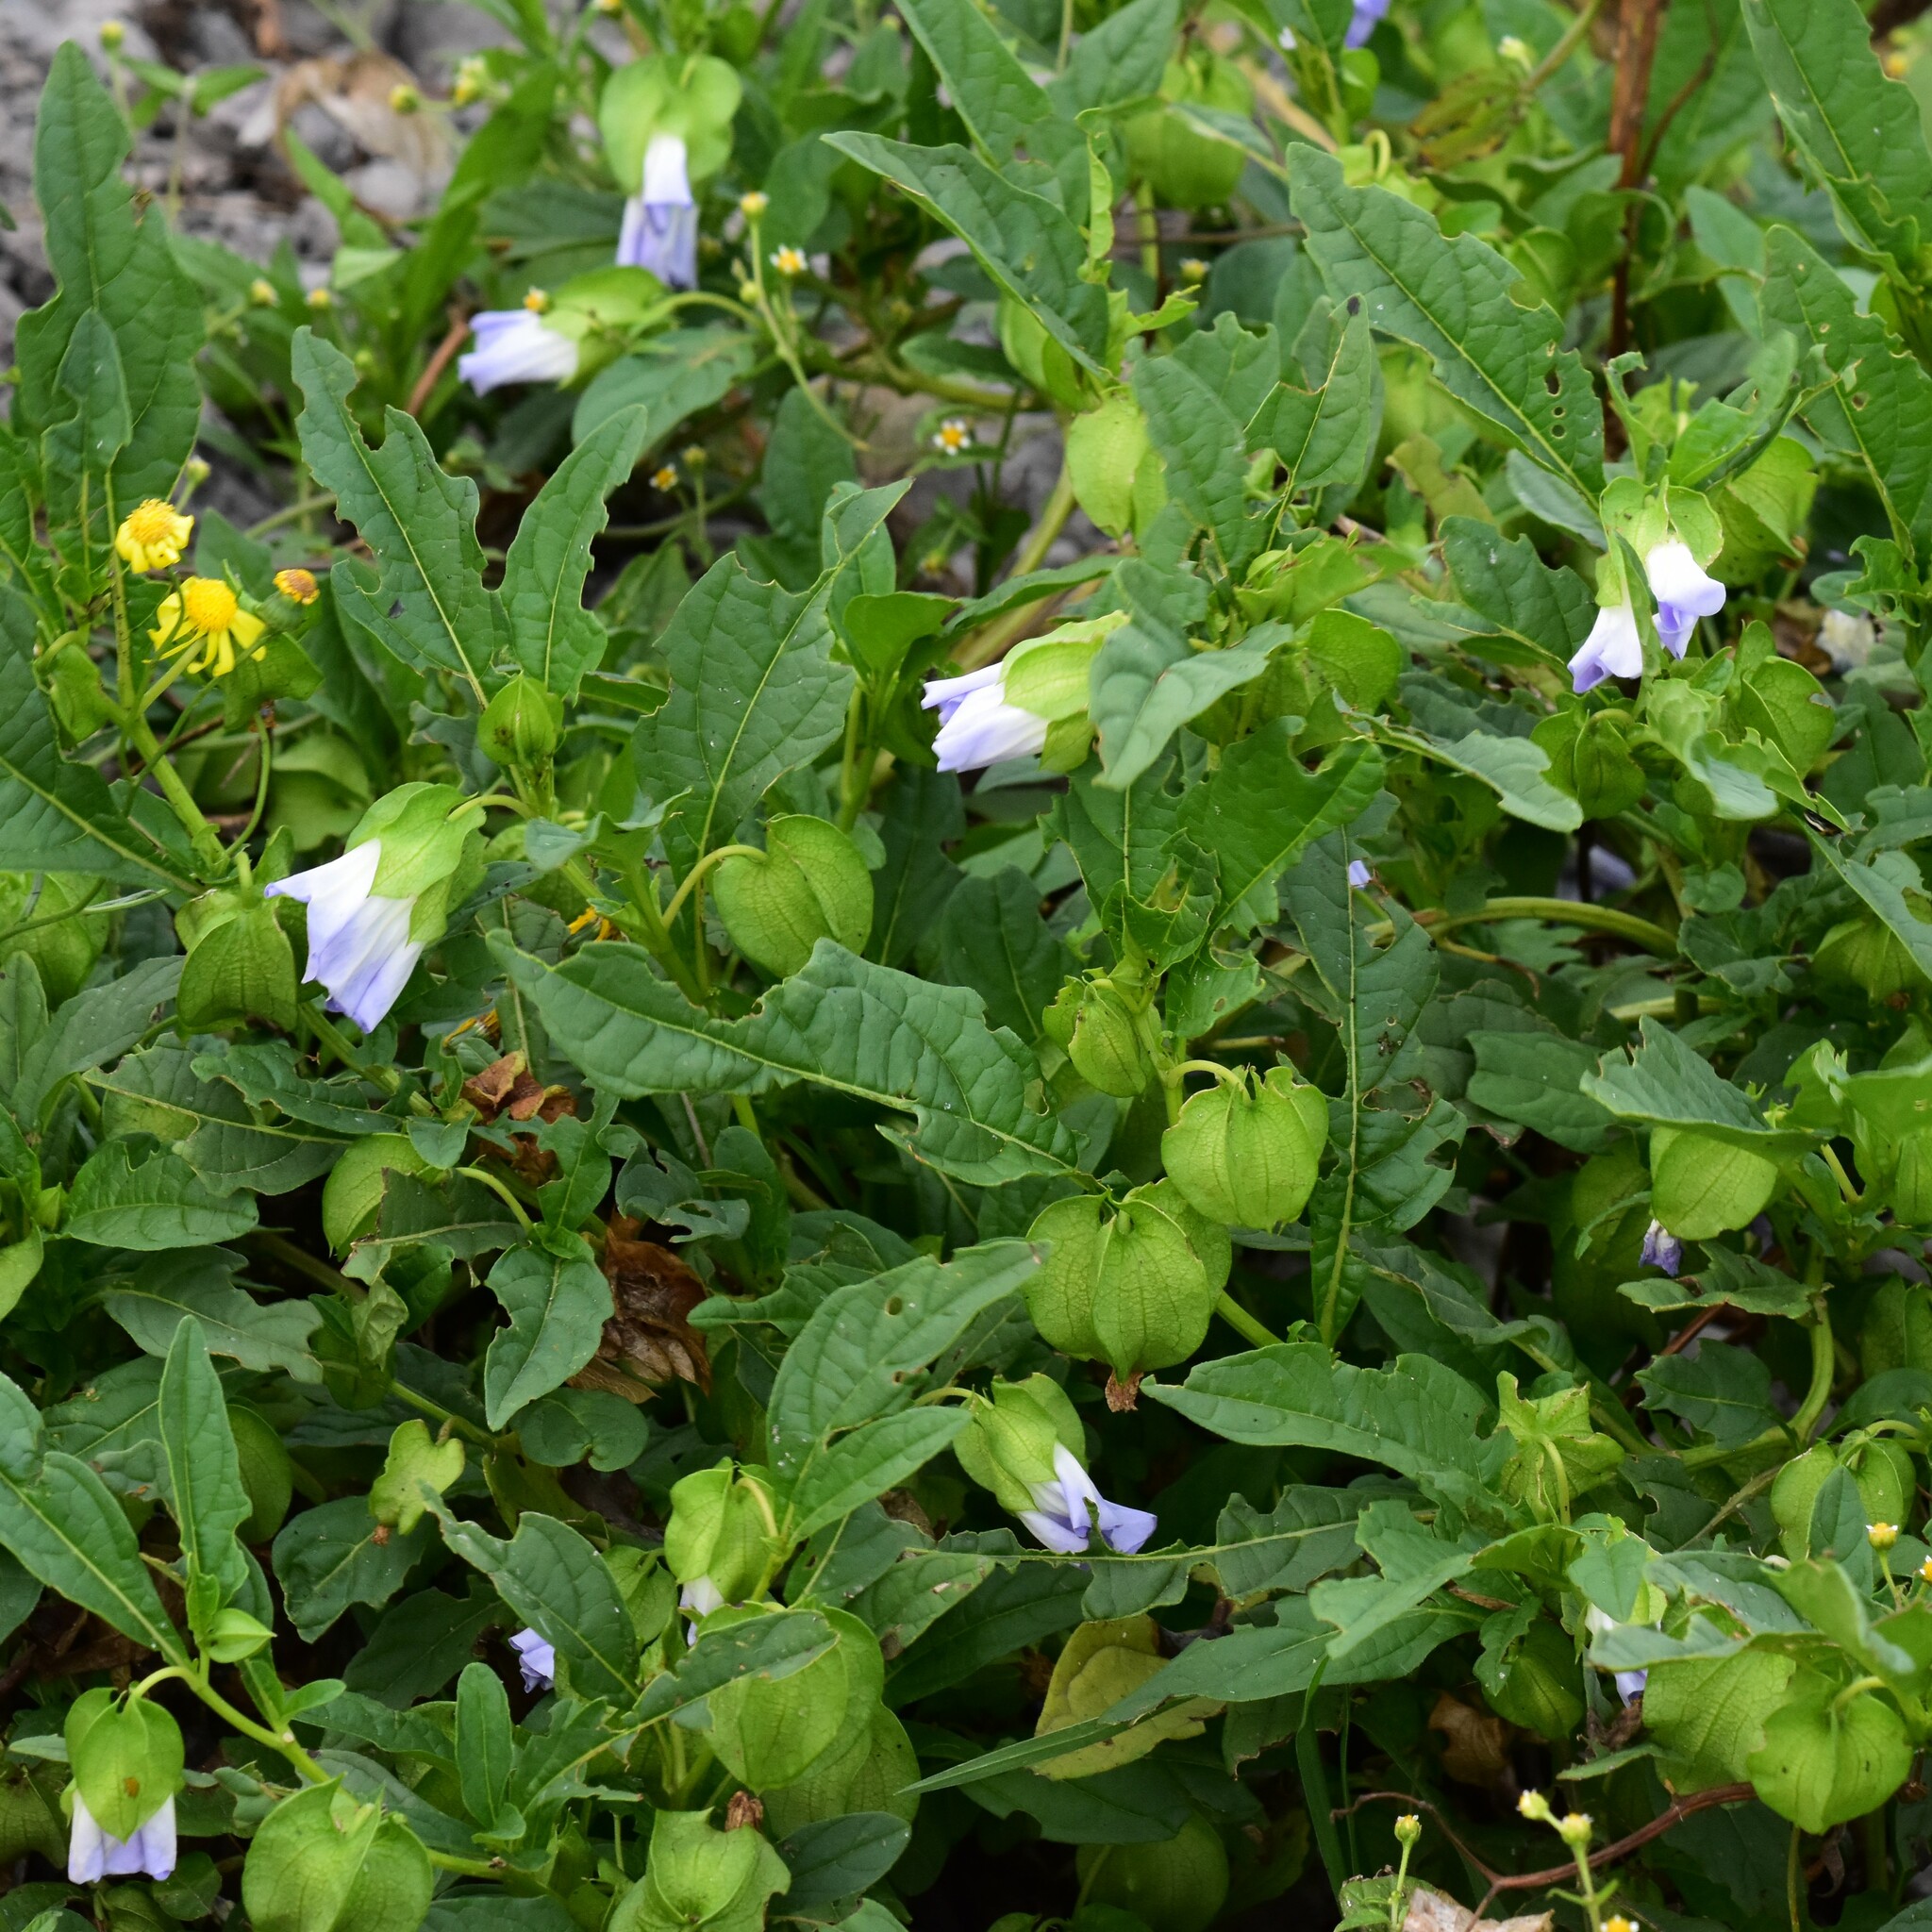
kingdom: Plantae
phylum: Tracheophyta
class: Magnoliopsida
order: Solanales
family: Solanaceae
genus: Nicandra
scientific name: Nicandra physalodes
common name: Apple-of-peru
